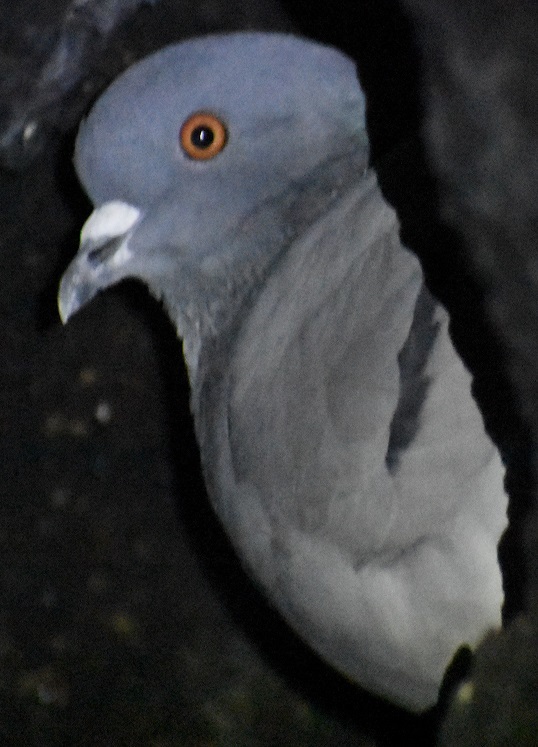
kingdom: Animalia
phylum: Chordata
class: Aves
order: Columbiformes
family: Columbidae
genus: Columba
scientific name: Columba livia
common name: Rock pigeon
